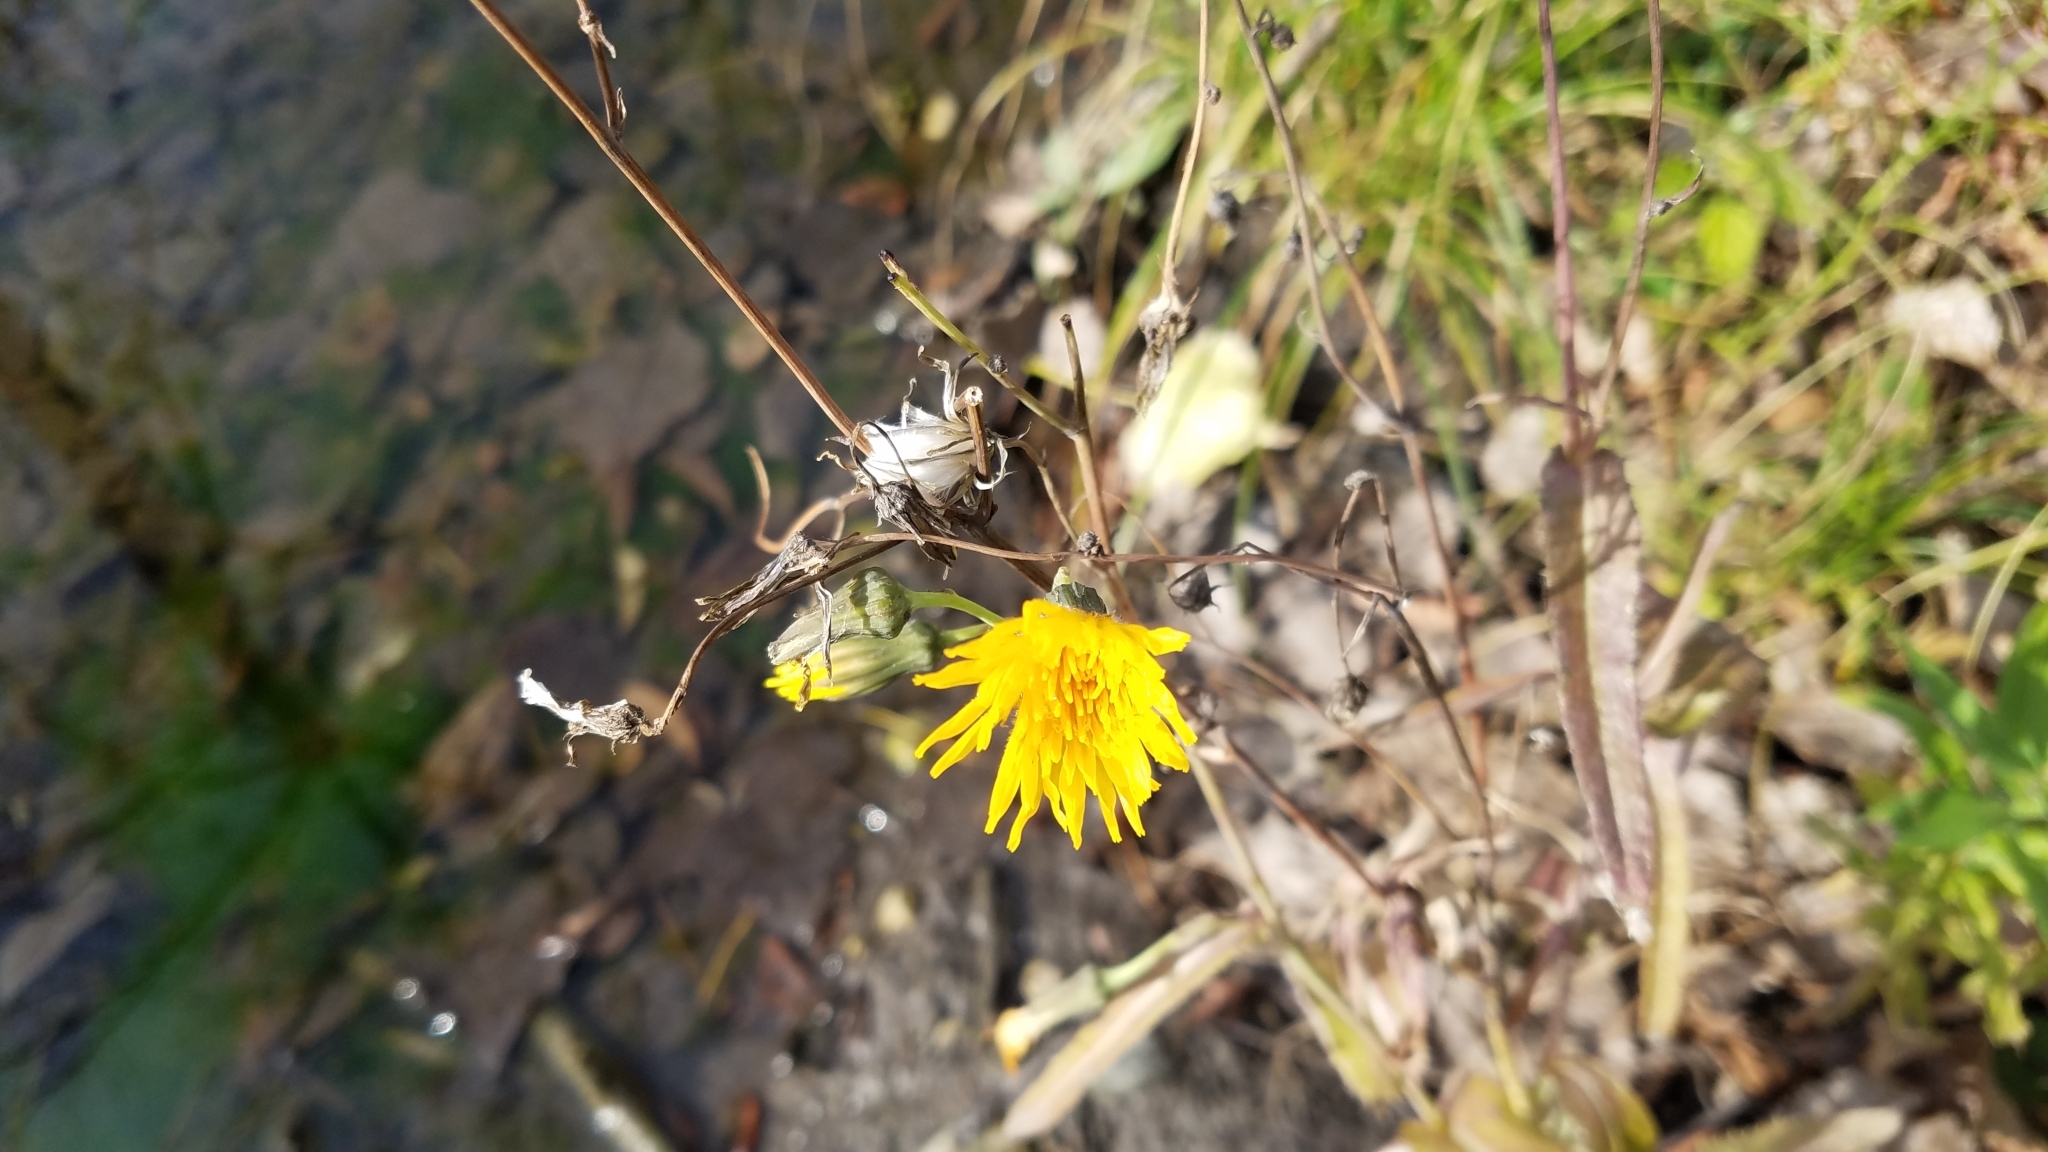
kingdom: Plantae
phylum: Tracheophyta
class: Magnoliopsida
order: Asterales
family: Asteraceae
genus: Sonchus
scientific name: Sonchus arvensis
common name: Perennial sow-thistle
